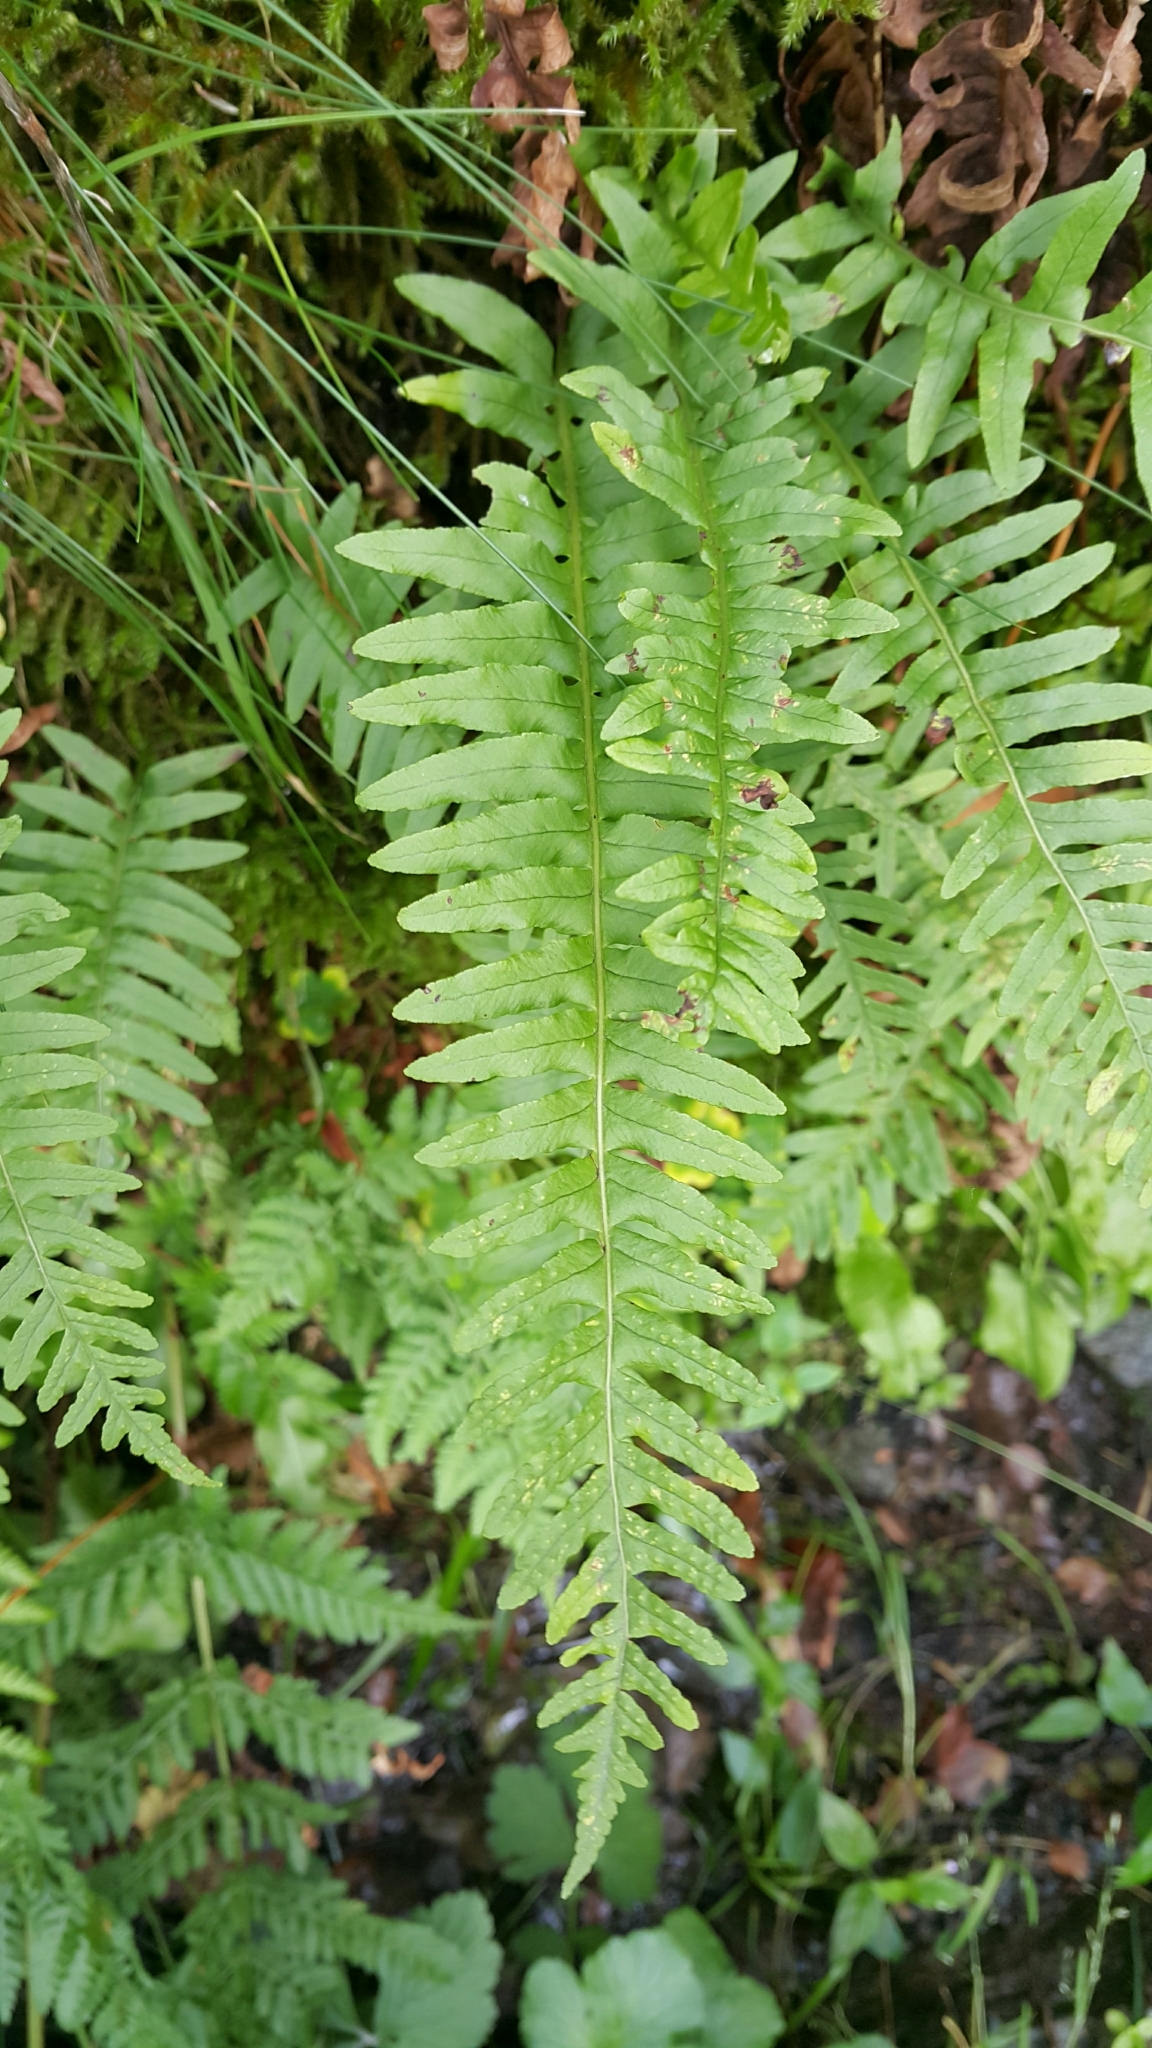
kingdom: Plantae
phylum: Tracheophyta
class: Polypodiopsida
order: Polypodiales
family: Polypodiaceae
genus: Polypodium
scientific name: Polypodium vulgare
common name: Common polypody
